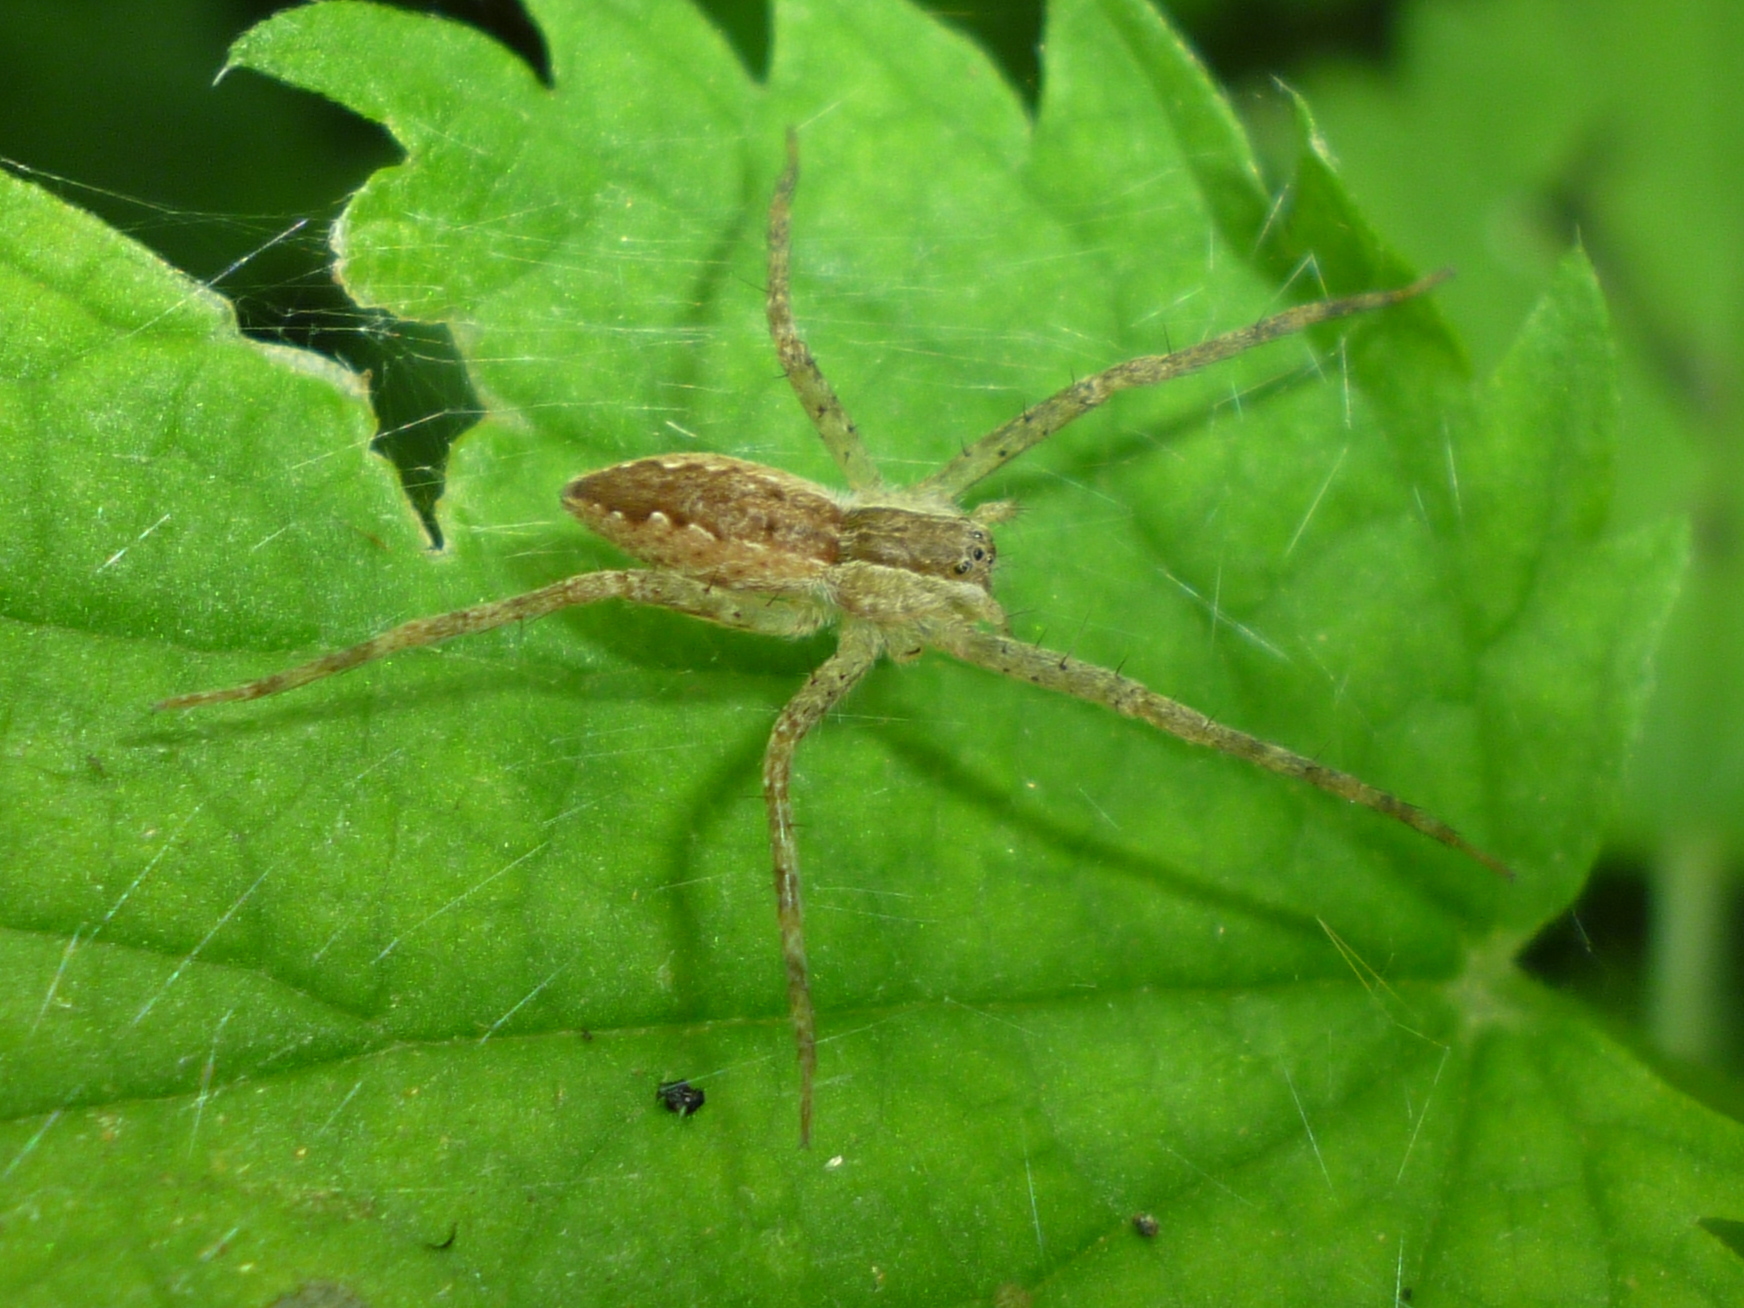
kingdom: Animalia
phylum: Arthropoda
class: Arachnida
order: Araneae
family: Pisauridae
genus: Pisaurina
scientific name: Pisaurina mira
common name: American nursery web spider
